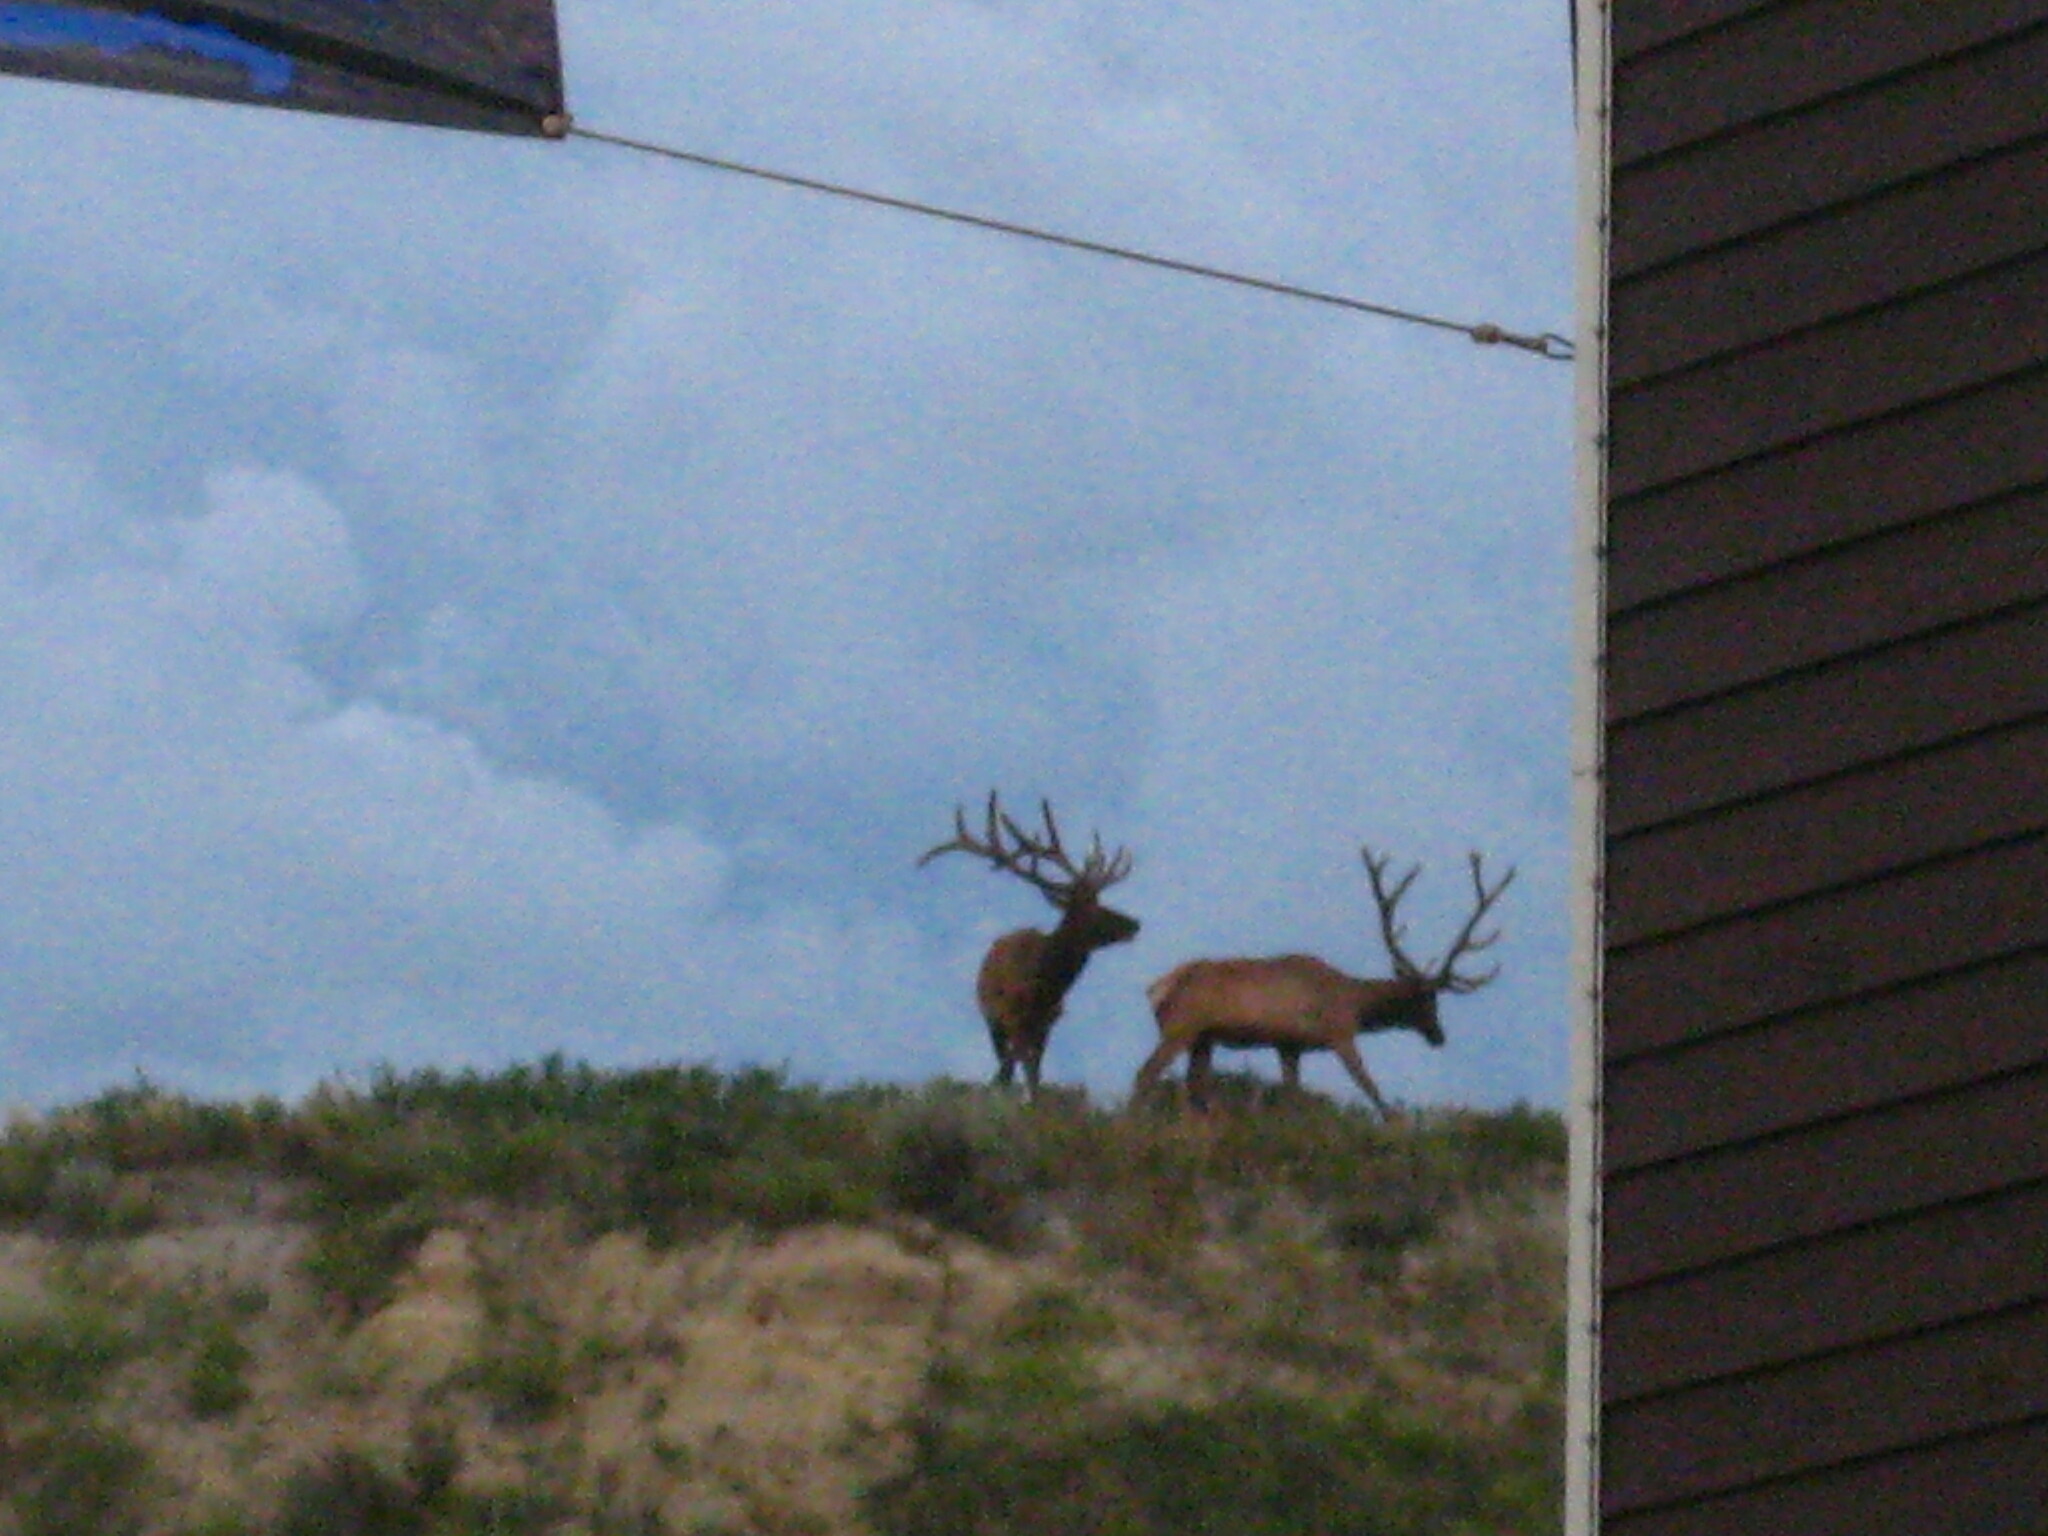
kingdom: Animalia
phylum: Chordata
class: Mammalia
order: Artiodactyla
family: Cervidae
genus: Cervus
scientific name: Cervus elaphus
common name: Red deer
